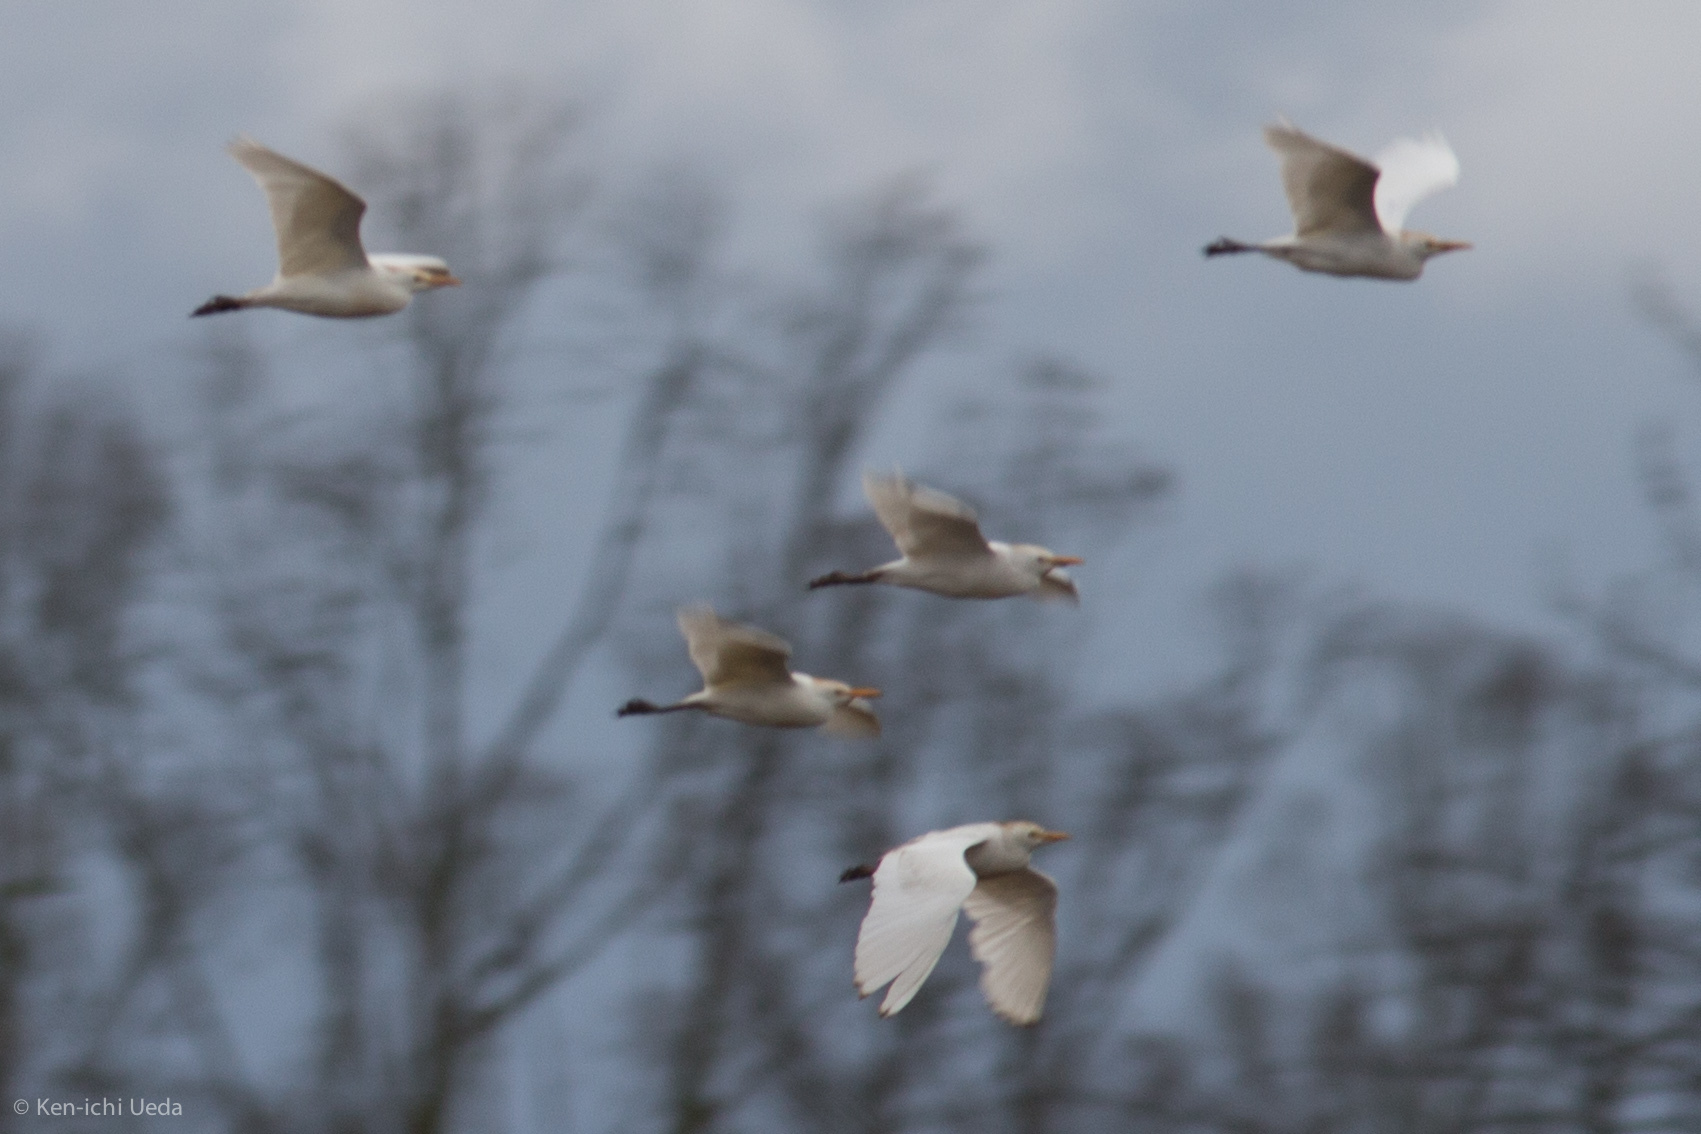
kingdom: Animalia
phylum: Chordata
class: Aves
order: Pelecaniformes
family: Ardeidae
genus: Bubulcus
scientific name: Bubulcus ibis
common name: Cattle egret
